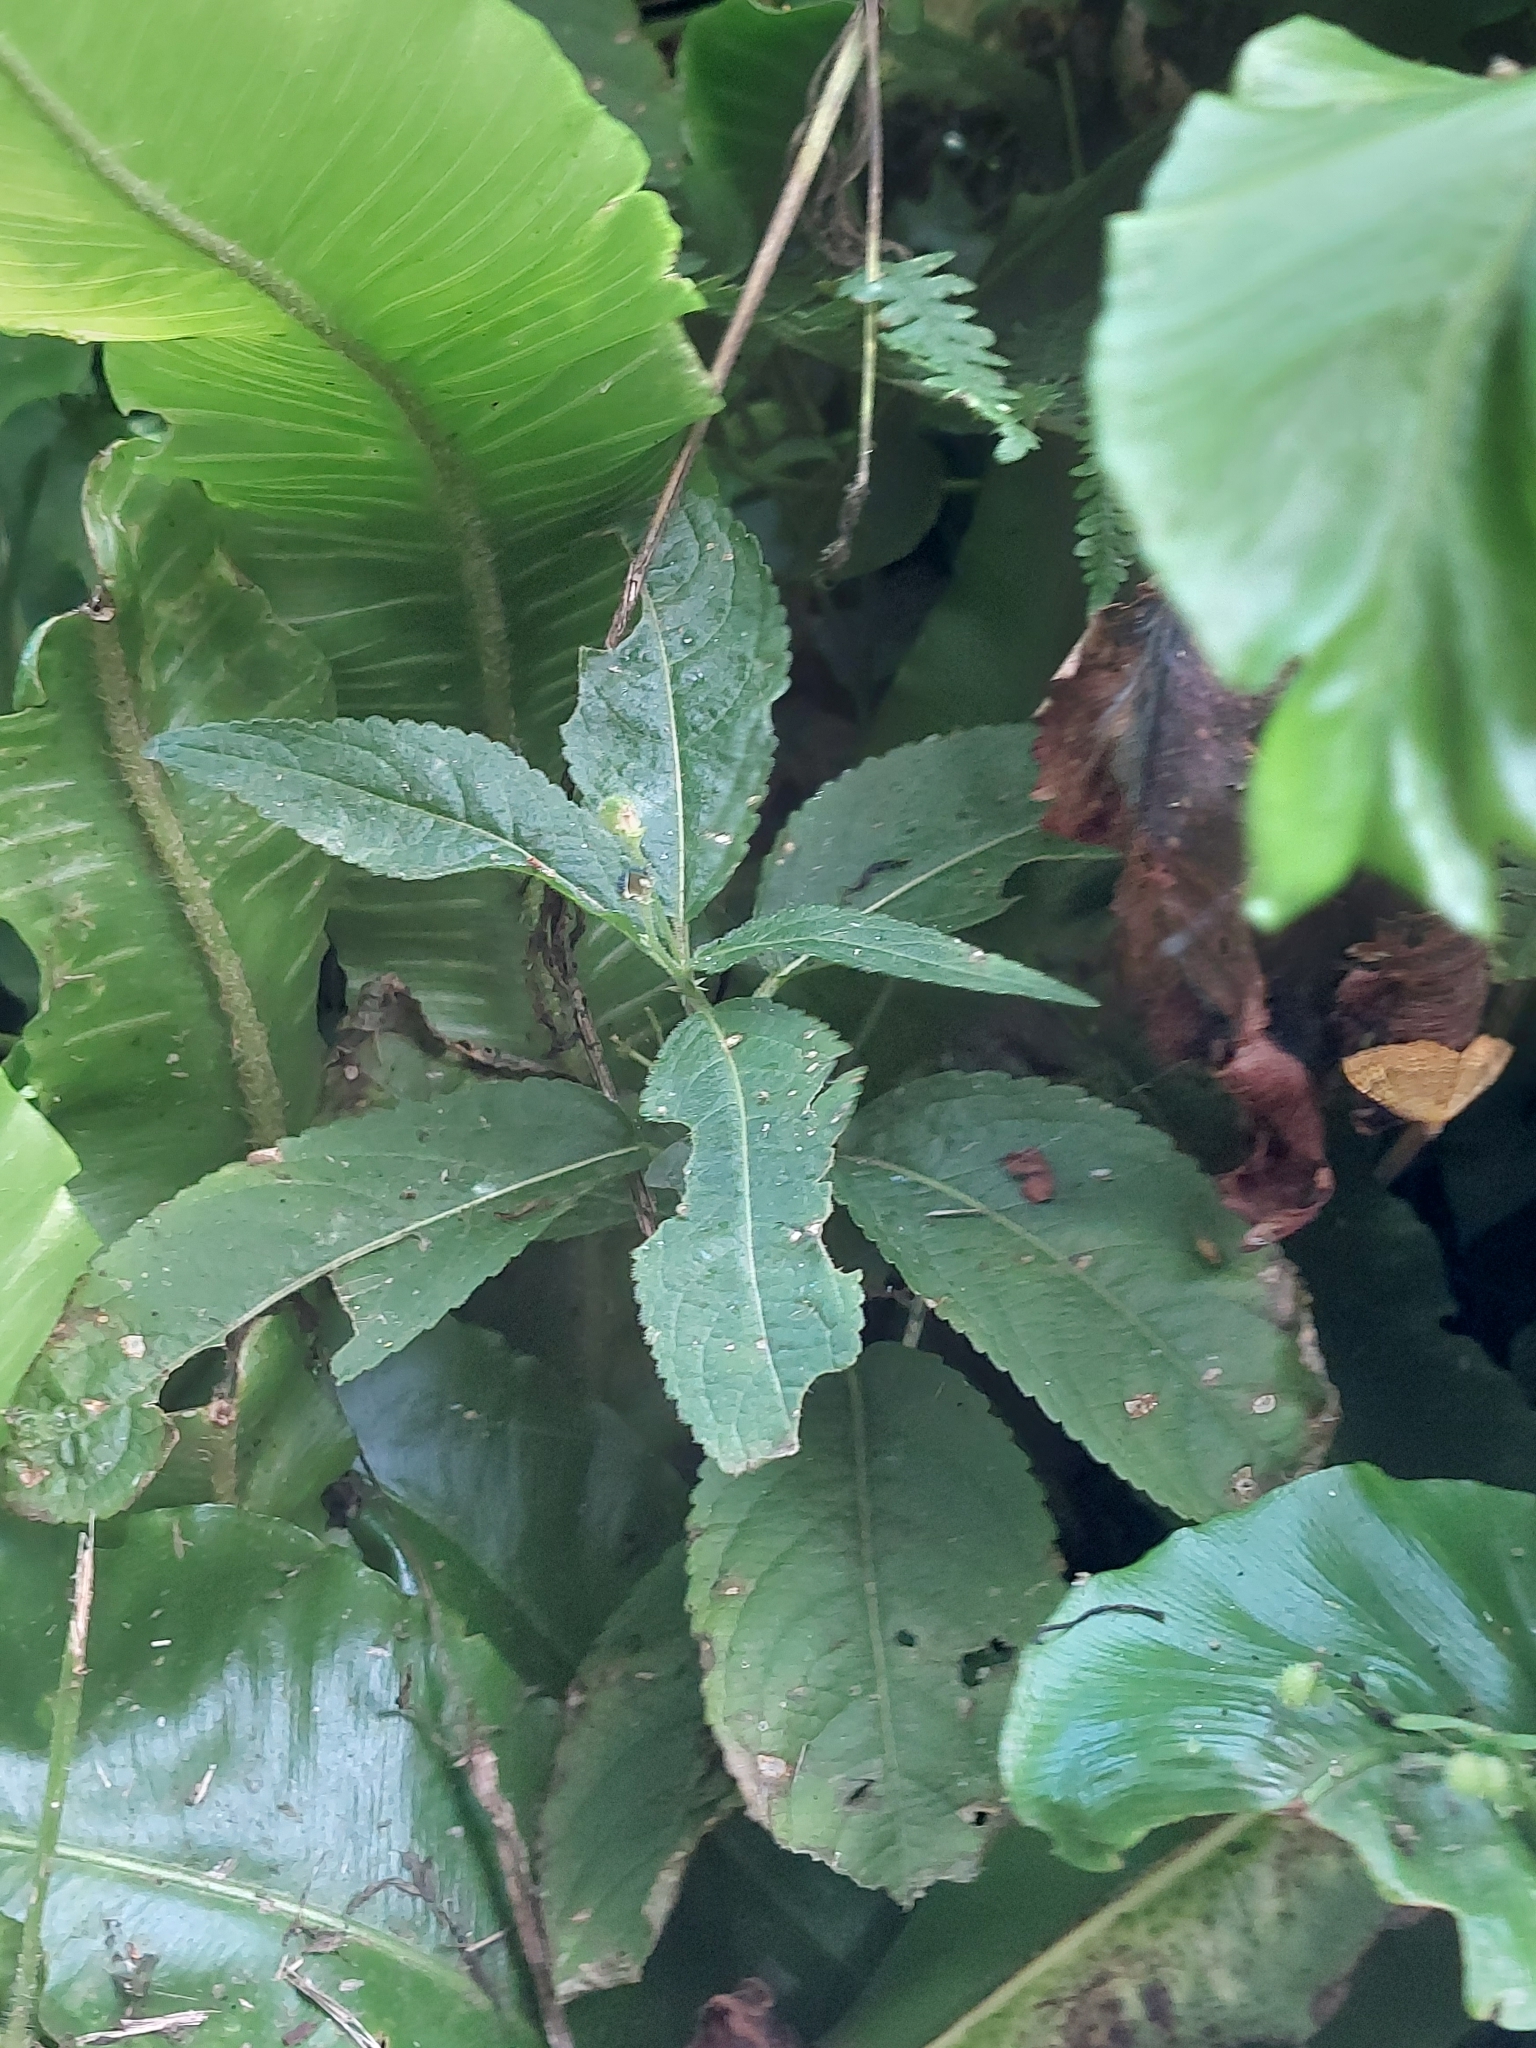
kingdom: Plantae
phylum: Tracheophyta
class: Magnoliopsida
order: Malpighiales
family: Euphorbiaceae
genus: Mercurialis
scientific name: Mercurialis perennis
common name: Dog mercury
